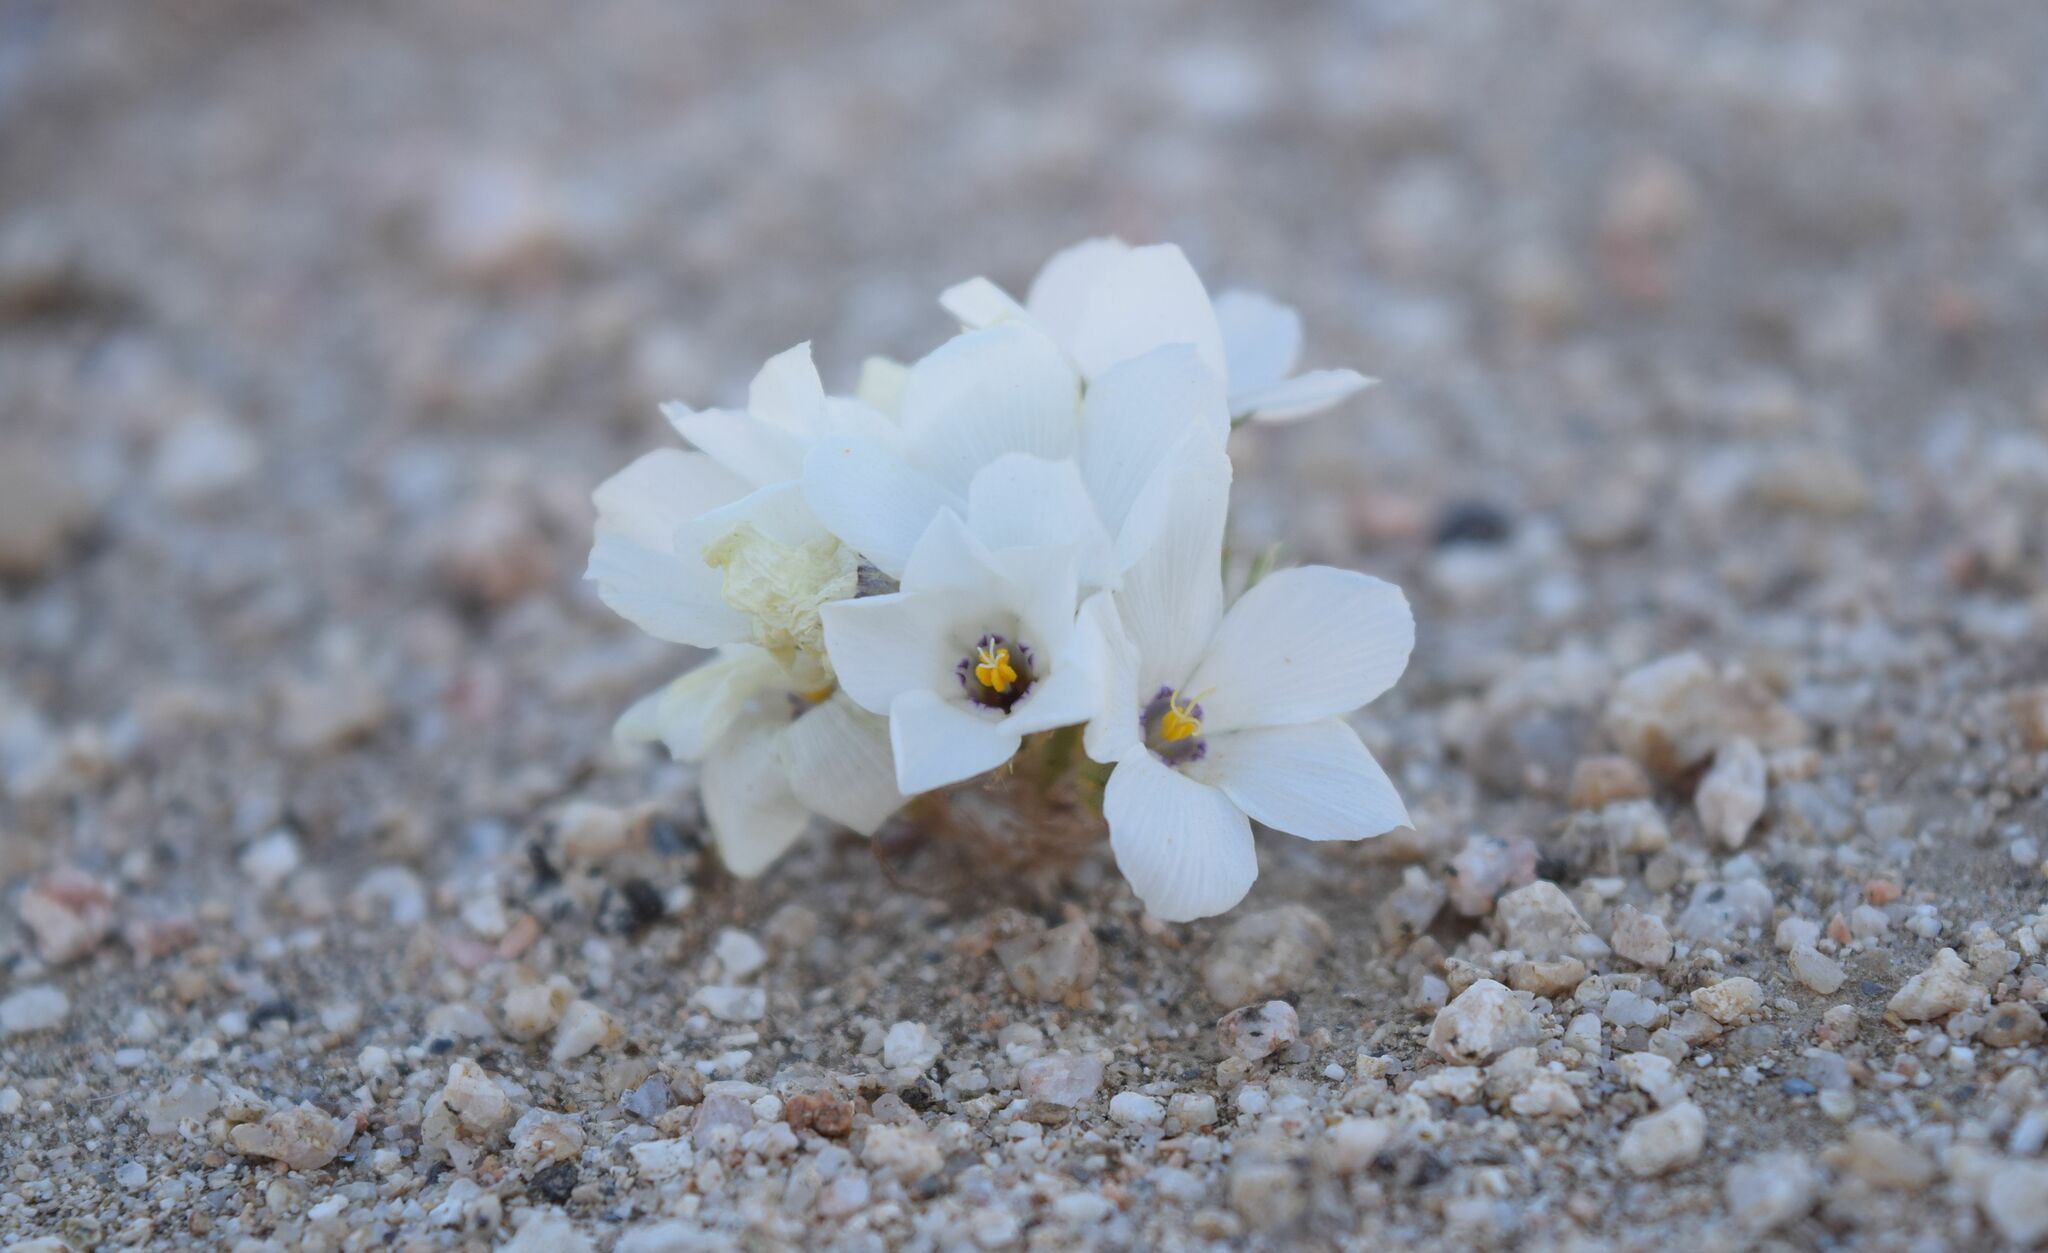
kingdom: Plantae
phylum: Tracheophyta
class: Magnoliopsida
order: Ericales
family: Polemoniaceae
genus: Linanthus
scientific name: Linanthus parryae
